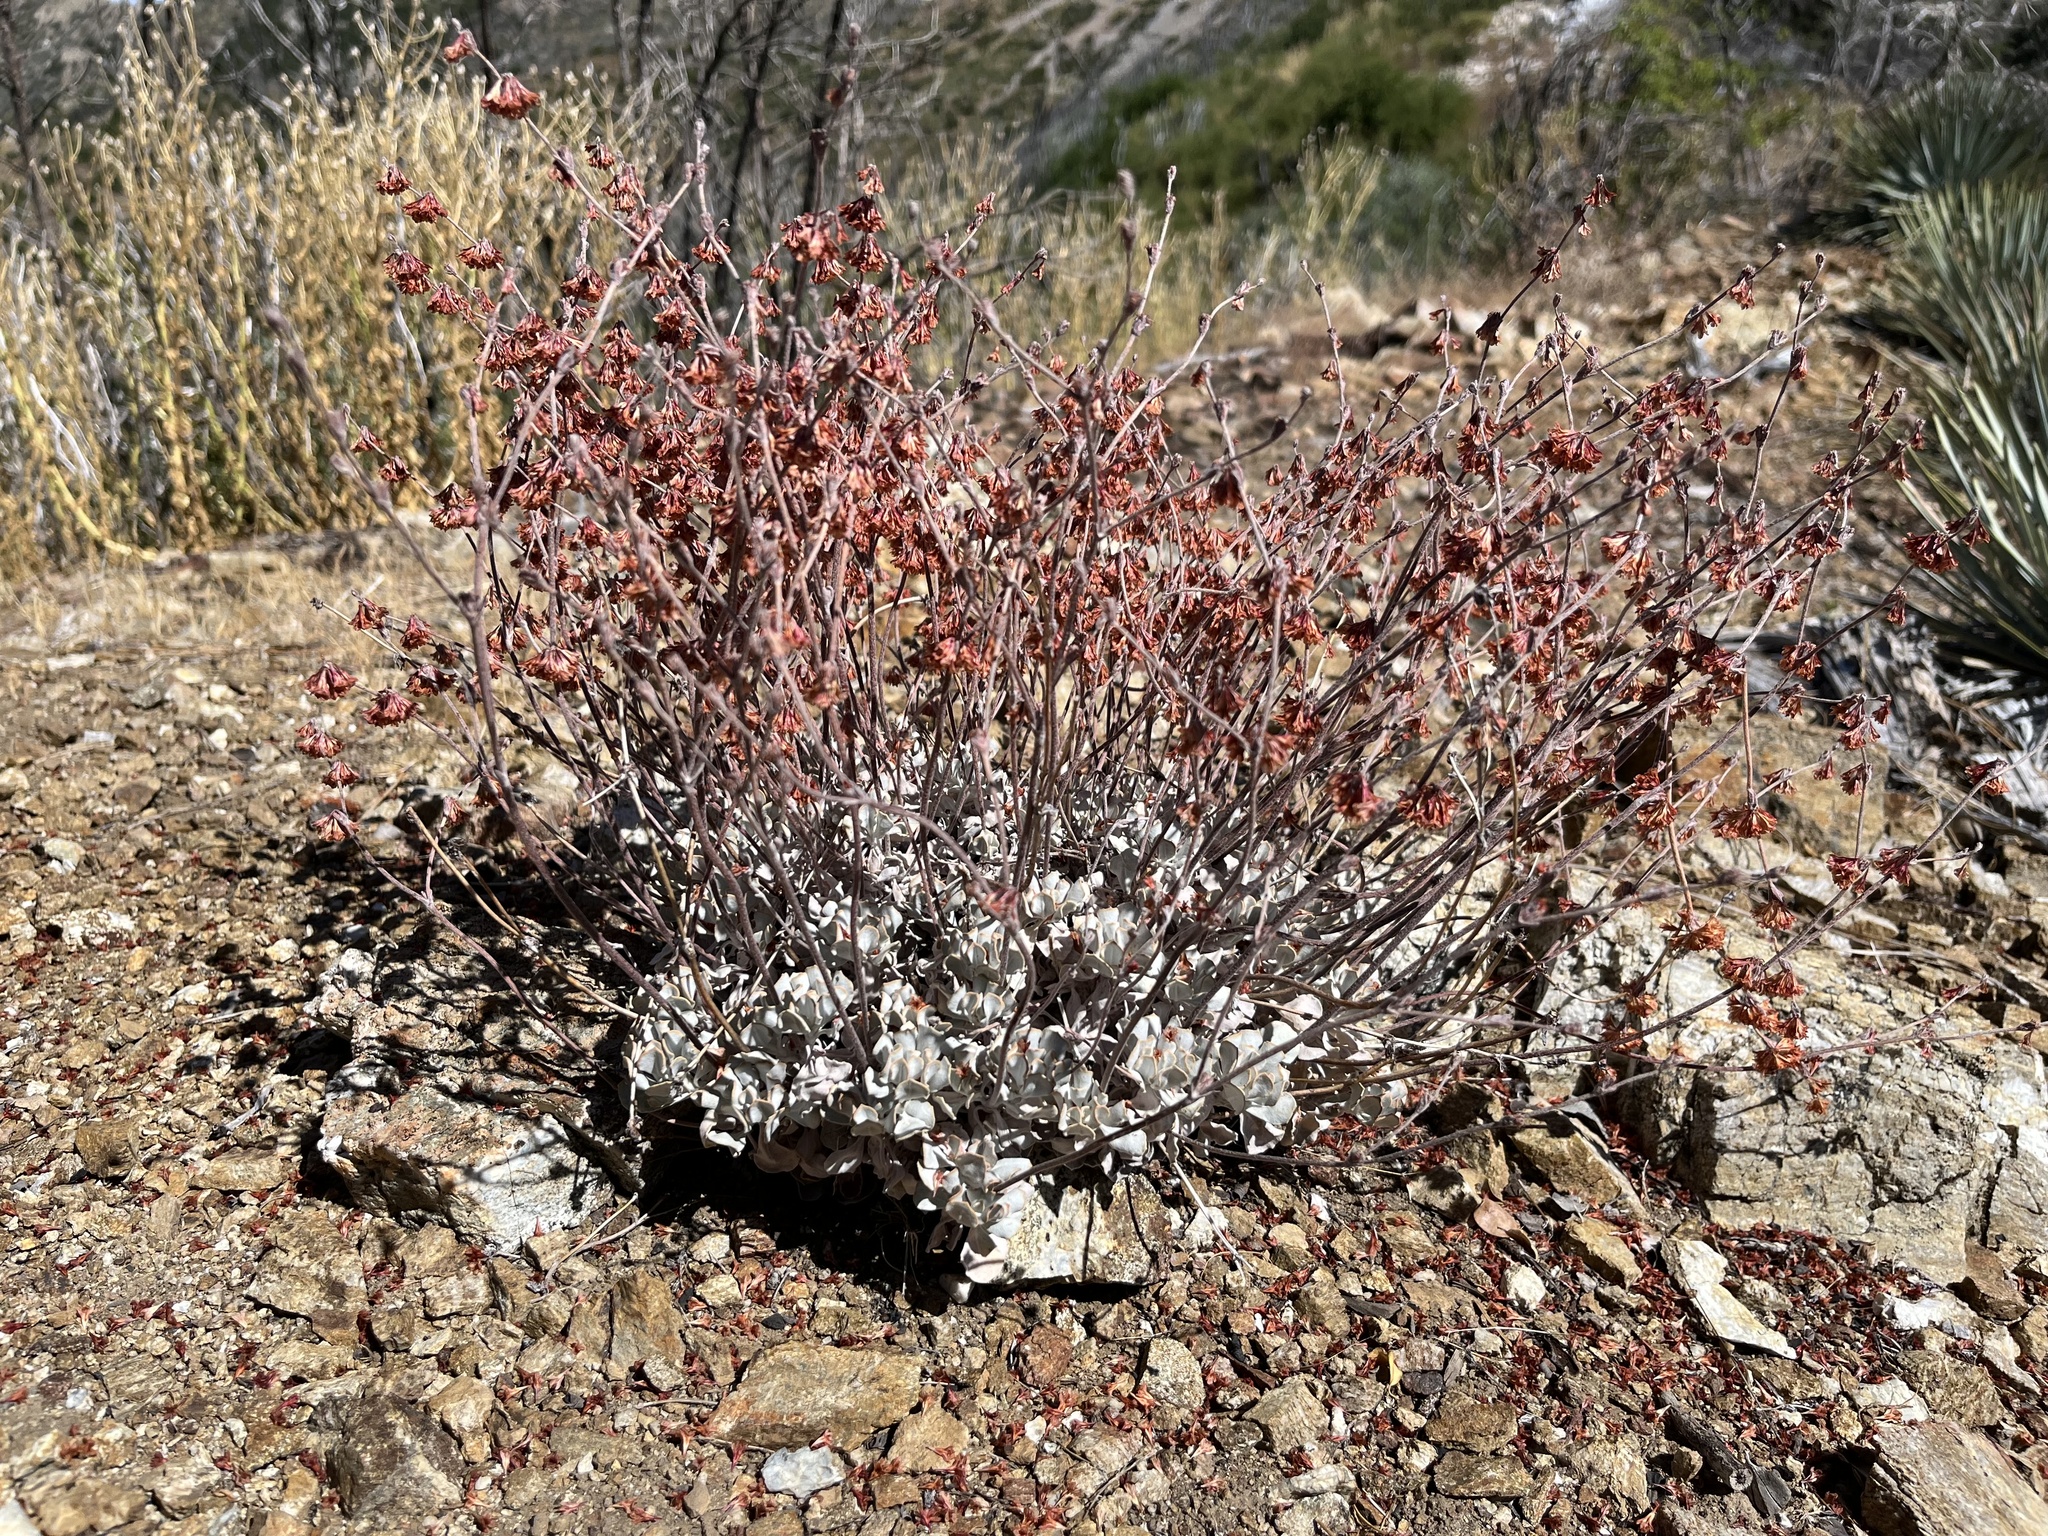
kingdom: Plantae
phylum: Tracheophyta
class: Magnoliopsida
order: Caryophyllales
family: Polygonaceae
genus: Eriogonum
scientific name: Eriogonum saxatile
